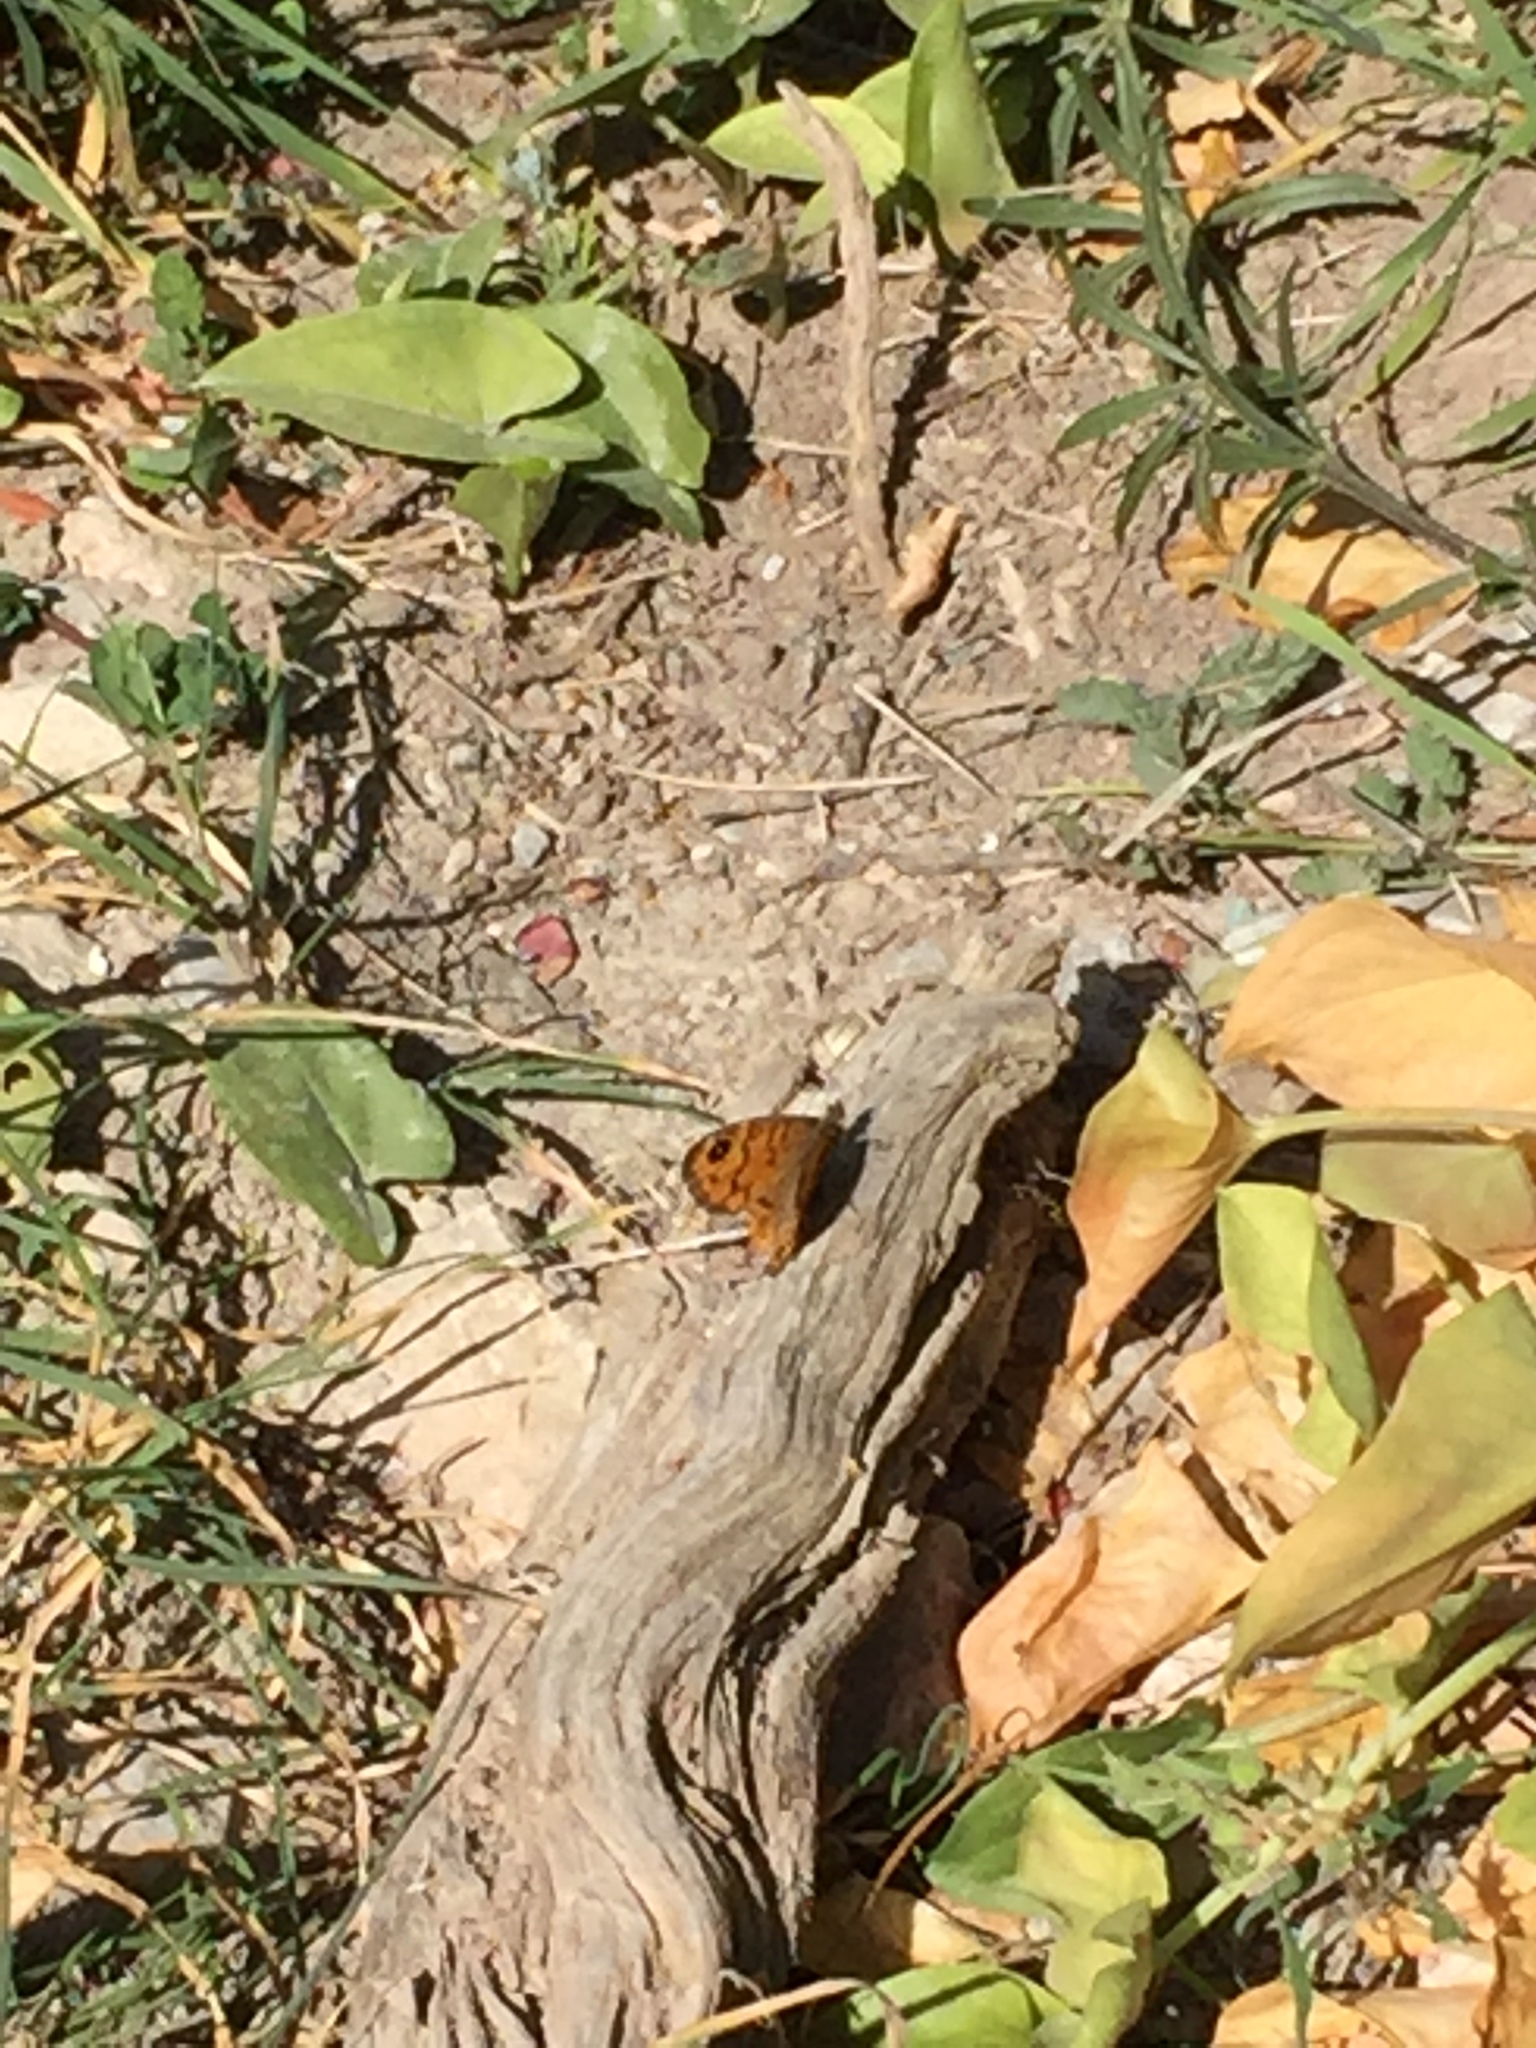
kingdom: Animalia
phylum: Arthropoda
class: Insecta
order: Lepidoptera
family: Nymphalidae
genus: Pararge
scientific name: Pararge Lasiommata megera
